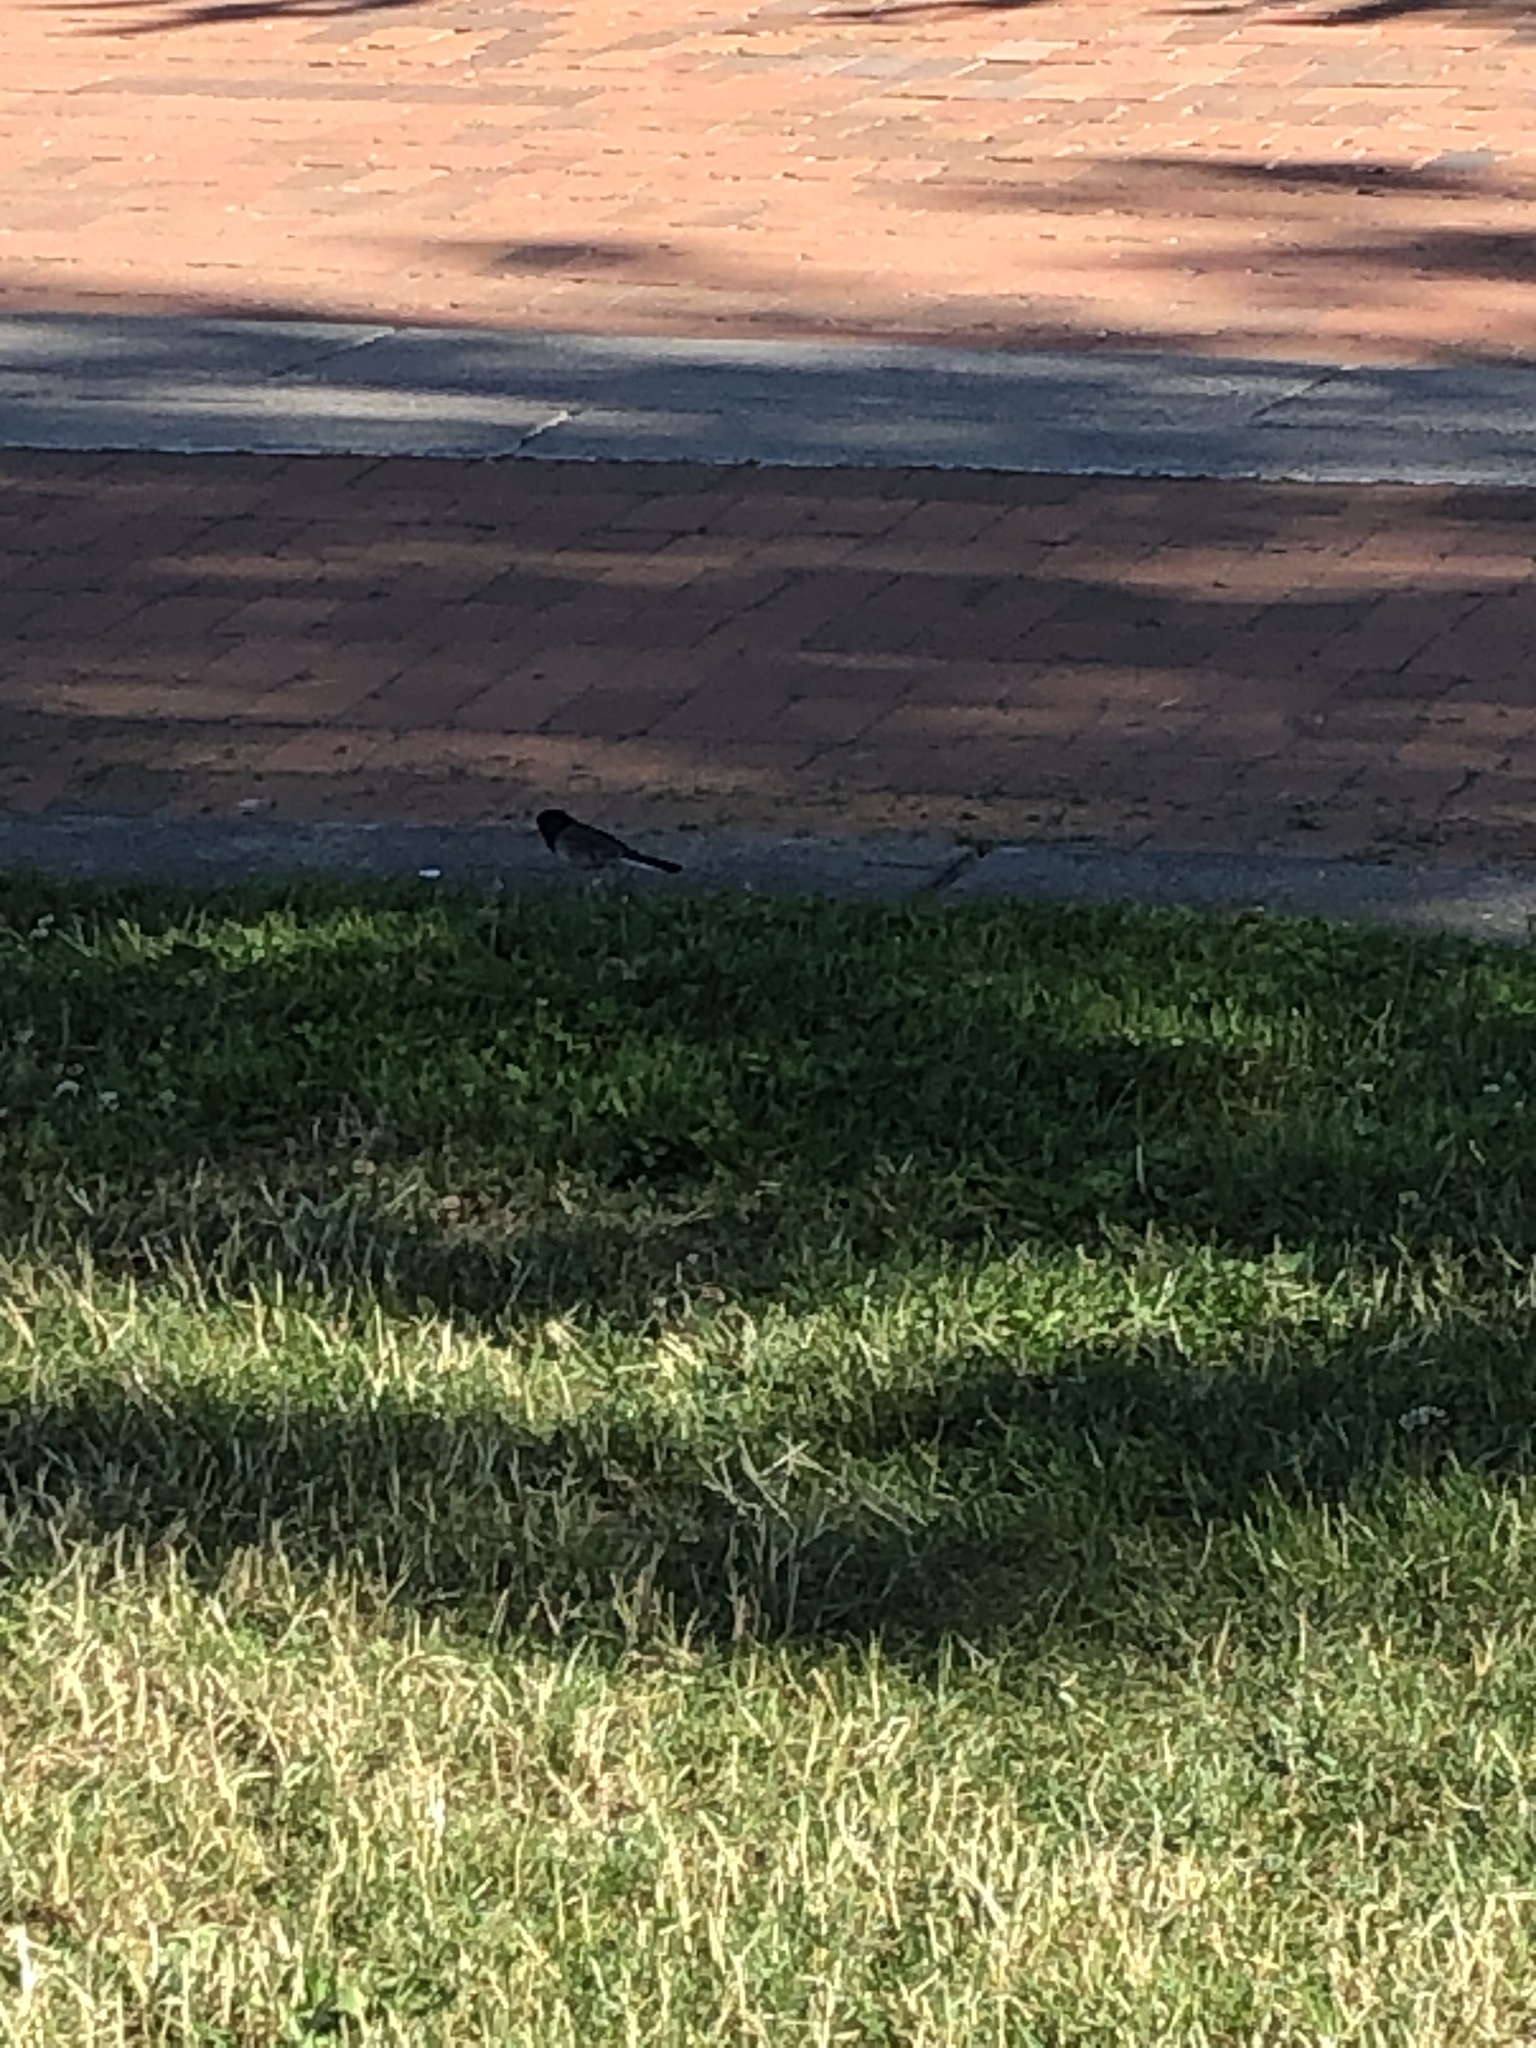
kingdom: Animalia
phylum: Chordata
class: Aves
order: Passeriformes
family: Passerellidae
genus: Junco
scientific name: Junco hyemalis
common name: Dark-eyed junco
